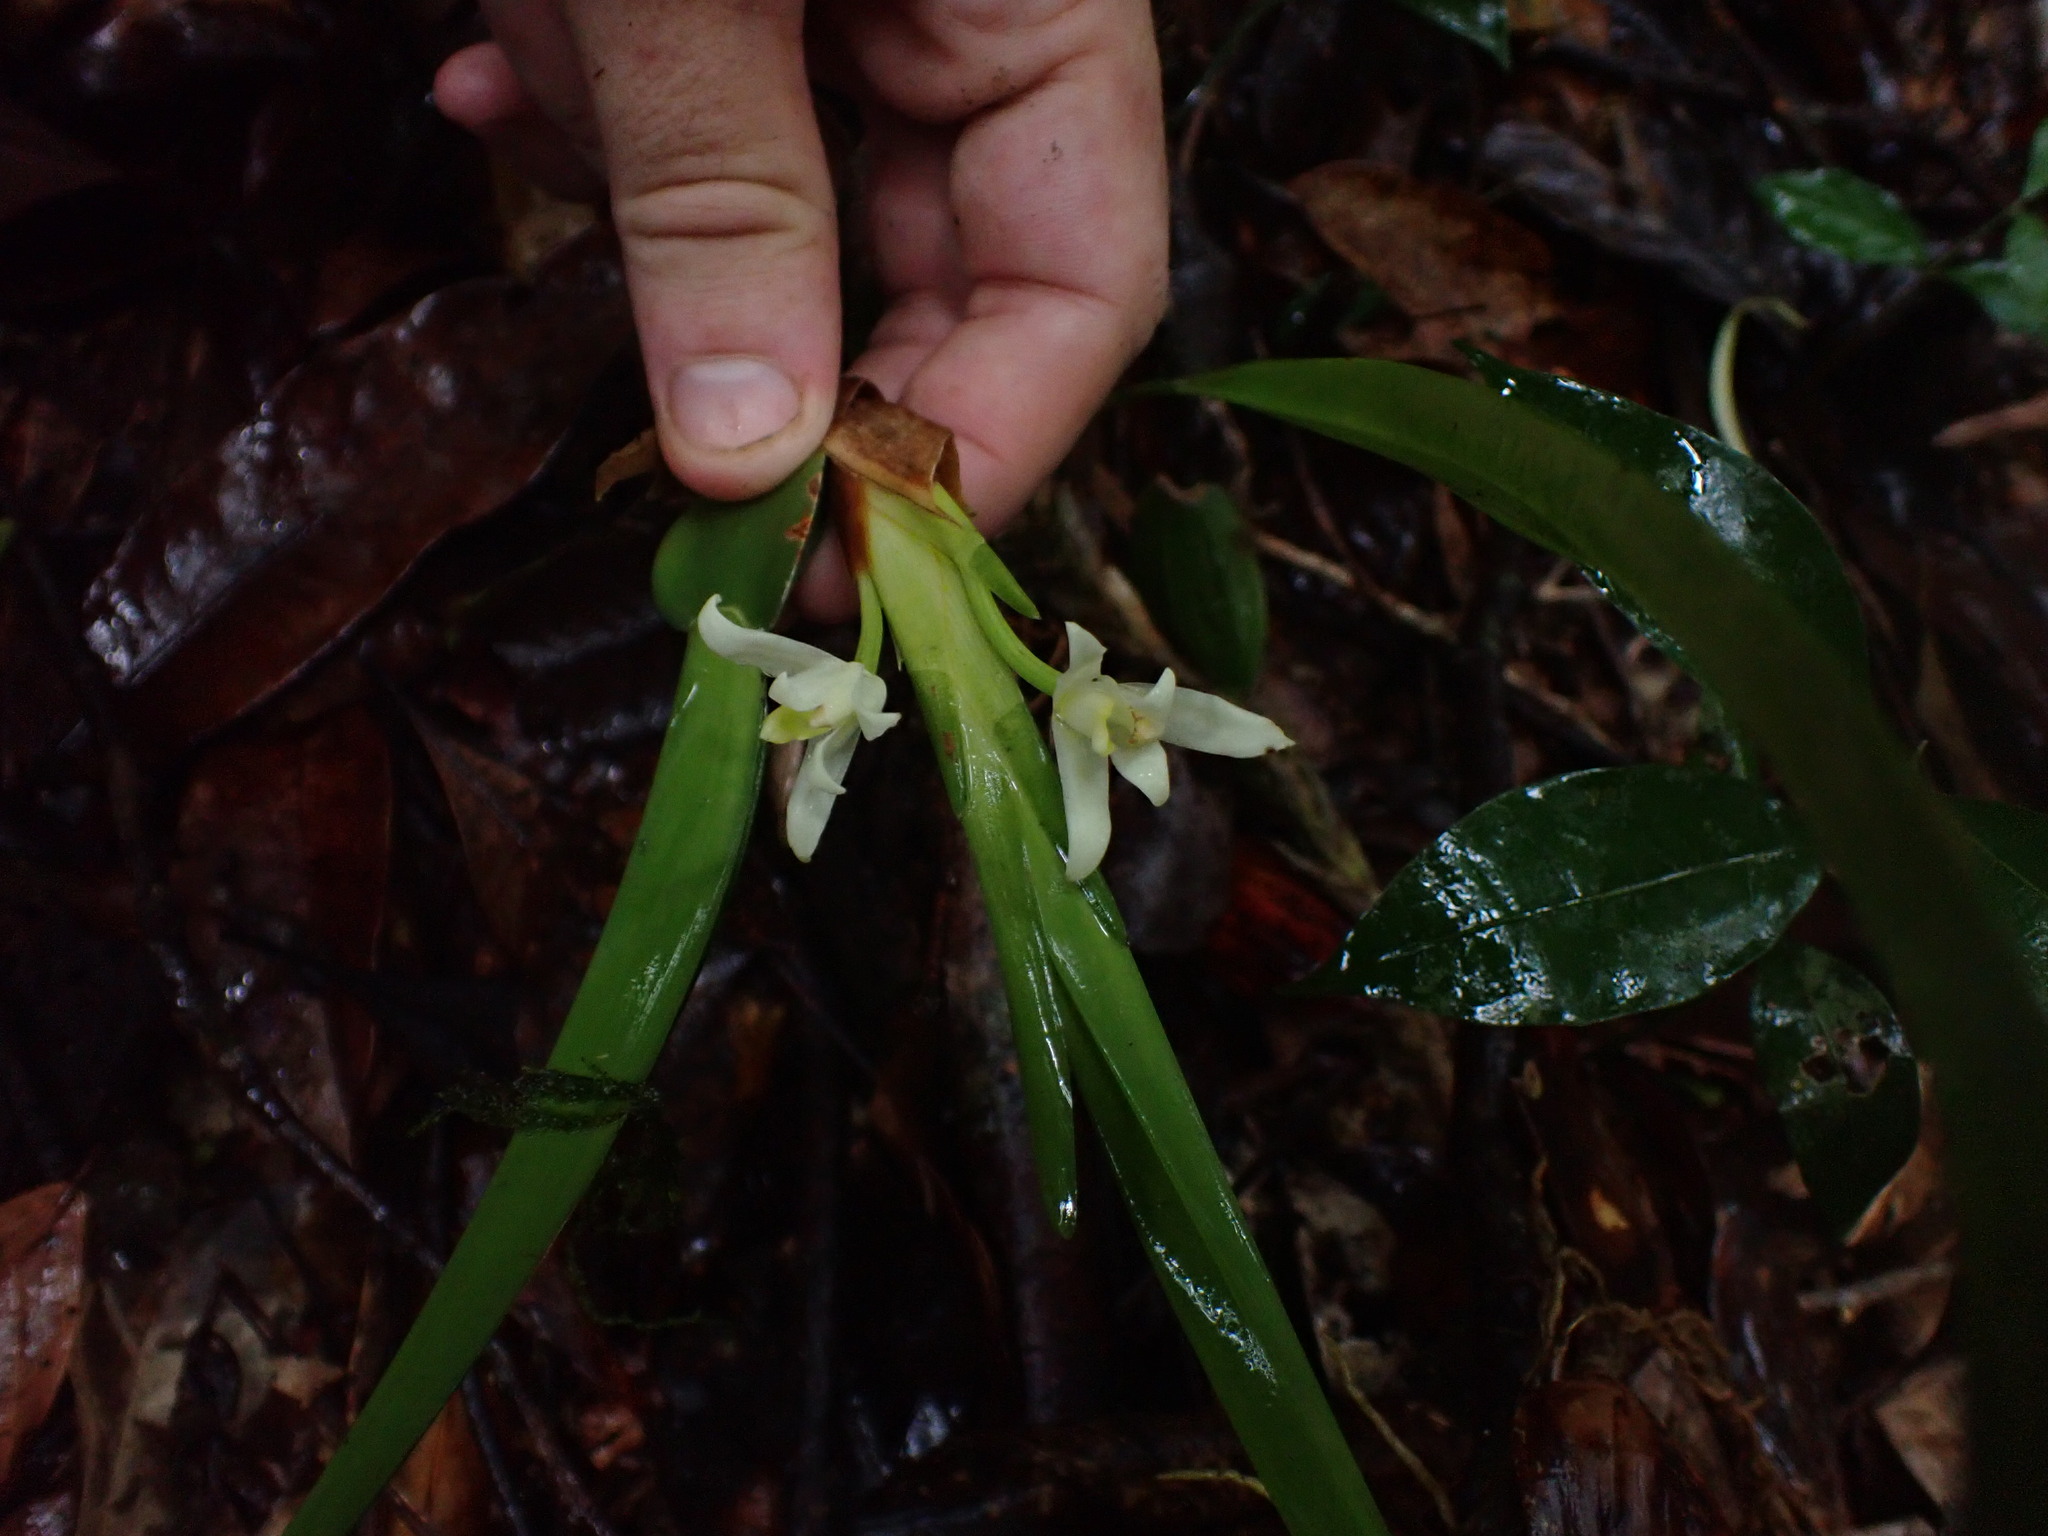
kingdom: Plantae
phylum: Tracheophyta
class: Liliopsida
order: Asparagales
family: Orchidaceae
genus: Maxillaria
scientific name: Maxillaria alba
